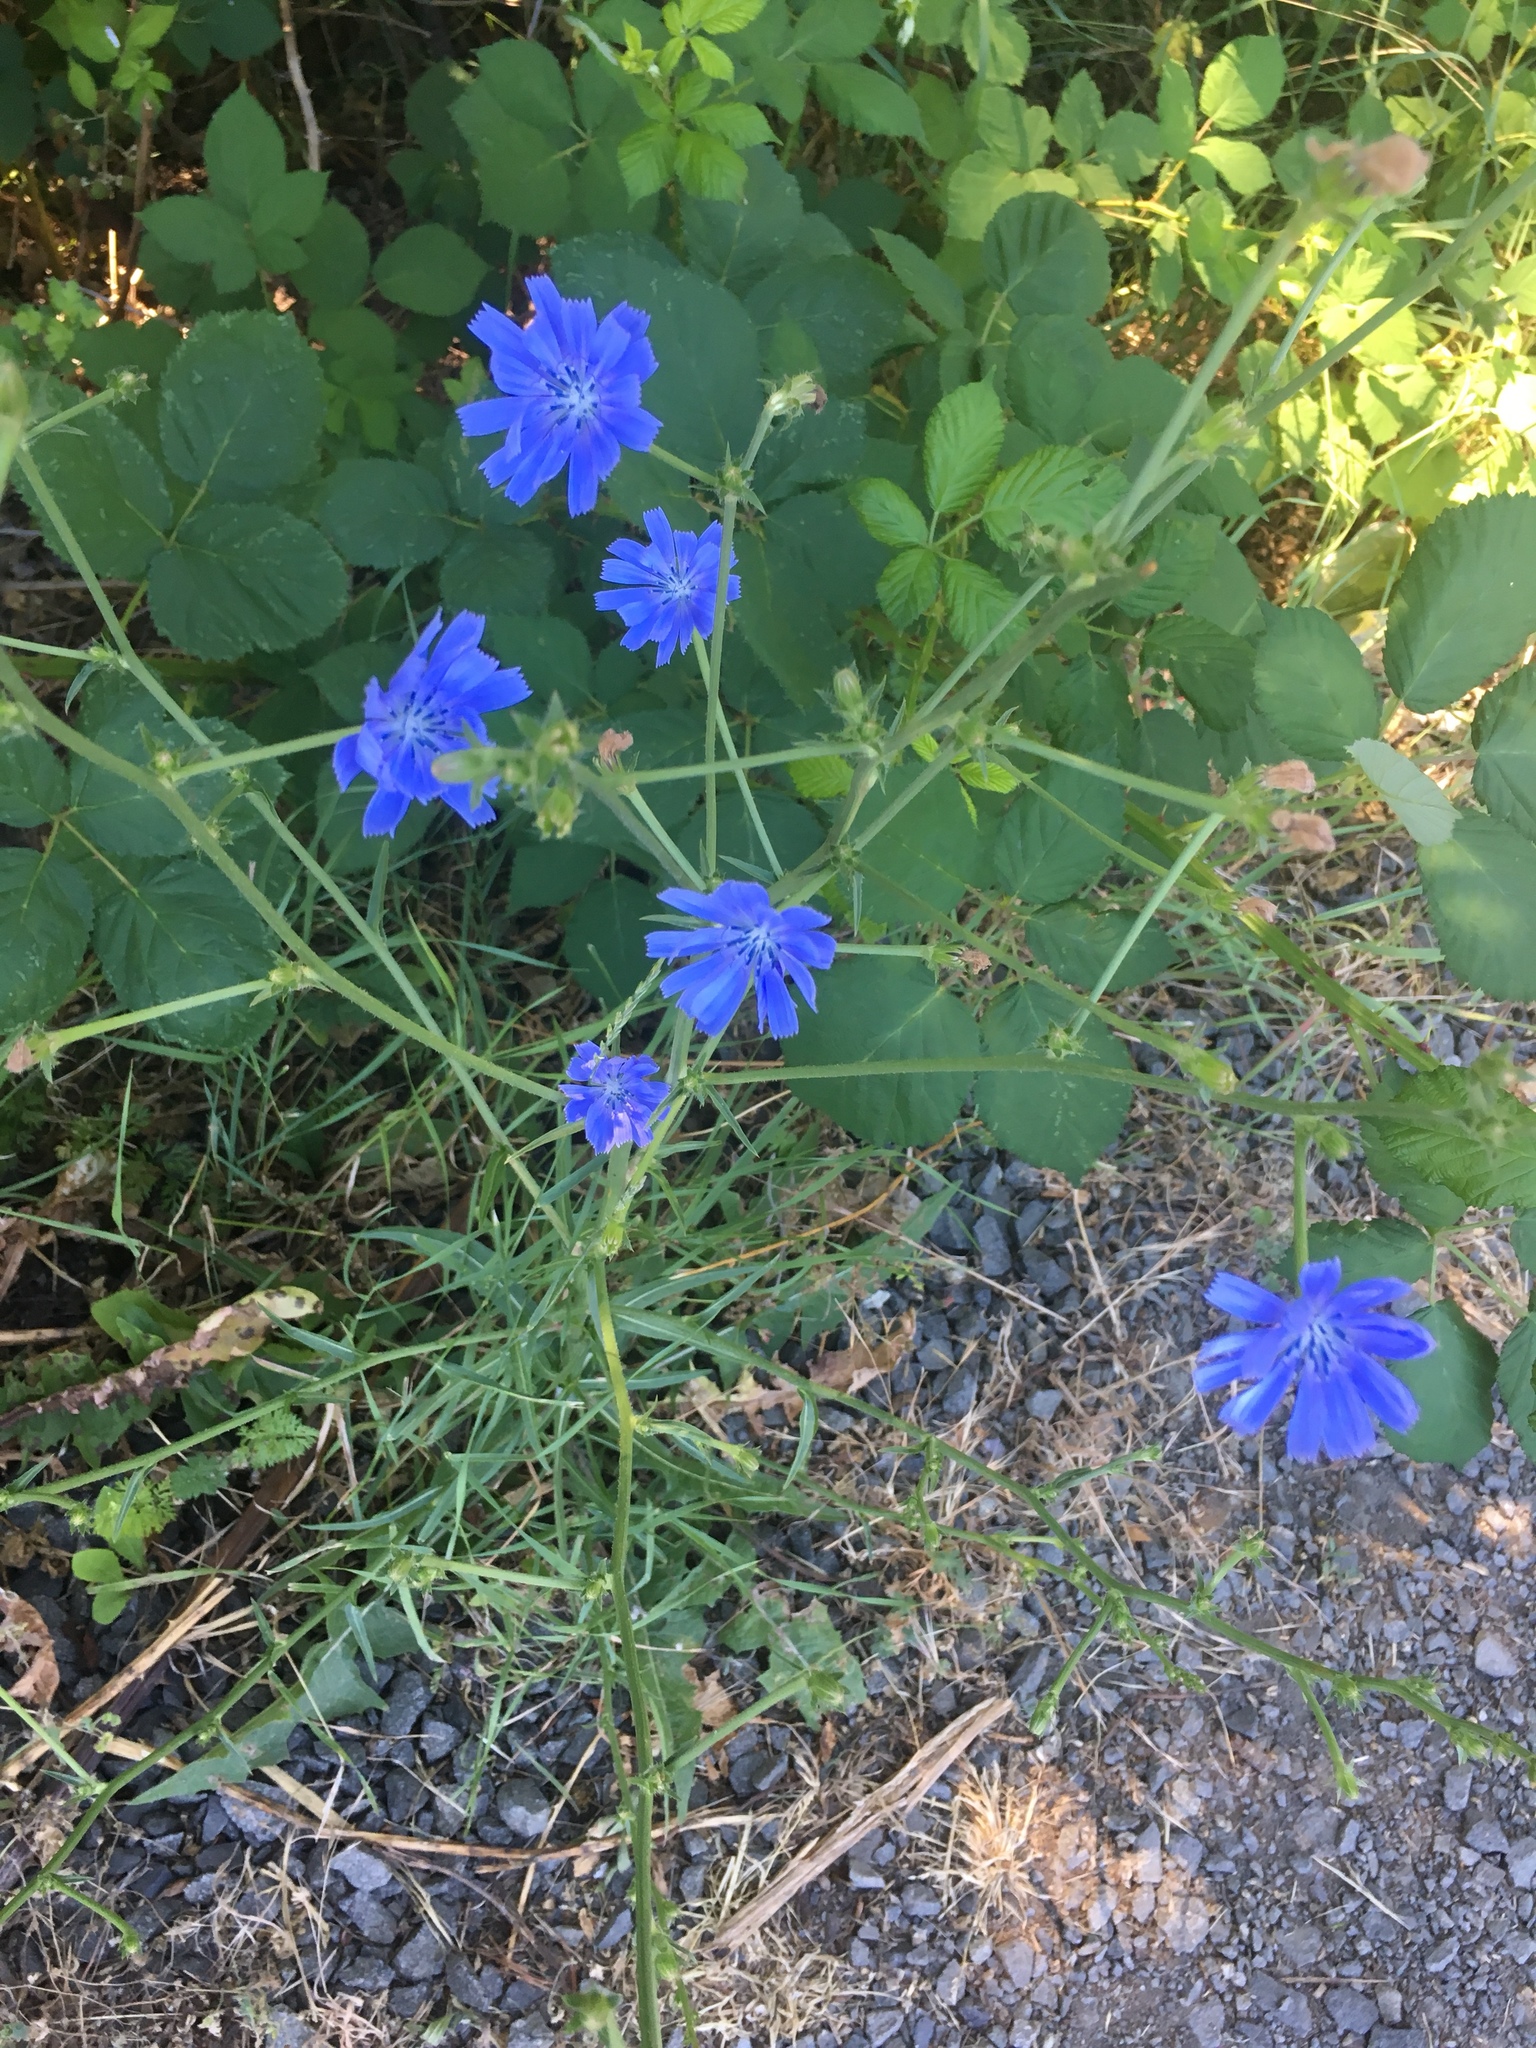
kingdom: Plantae
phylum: Tracheophyta
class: Magnoliopsida
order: Asterales
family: Asteraceae
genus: Cichorium
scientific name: Cichorium intybus
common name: Chicory
